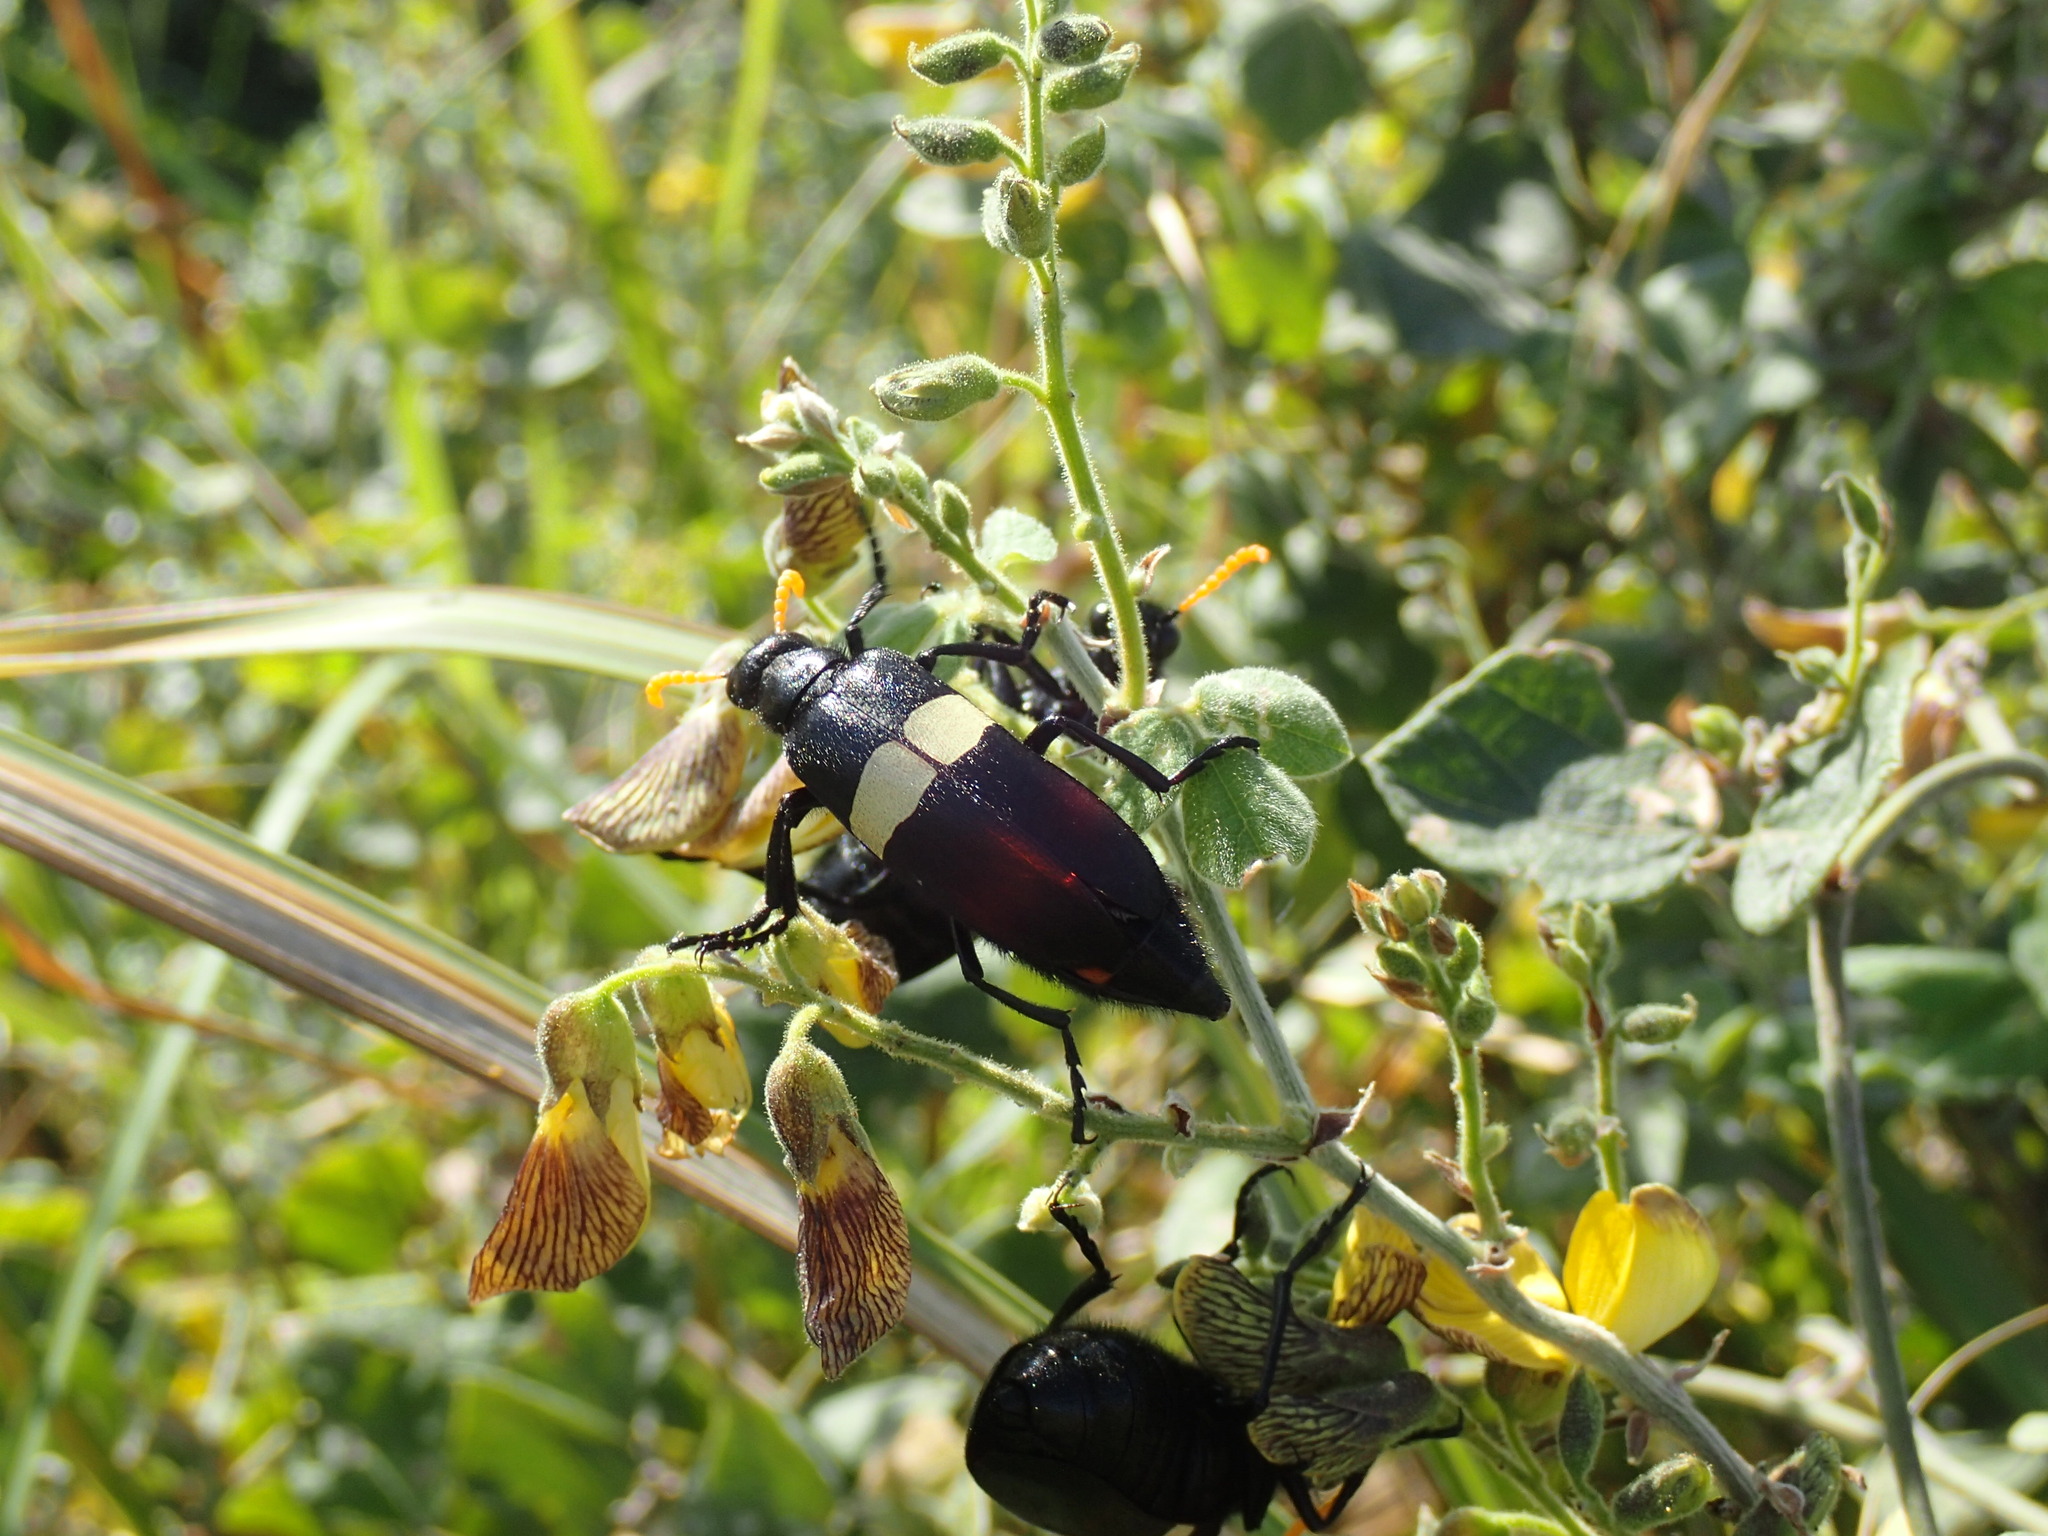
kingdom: Animalia
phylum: Arthropoda
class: Insecta
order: Coleoptera
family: Meloidae
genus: Hycleus
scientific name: Hycleus
